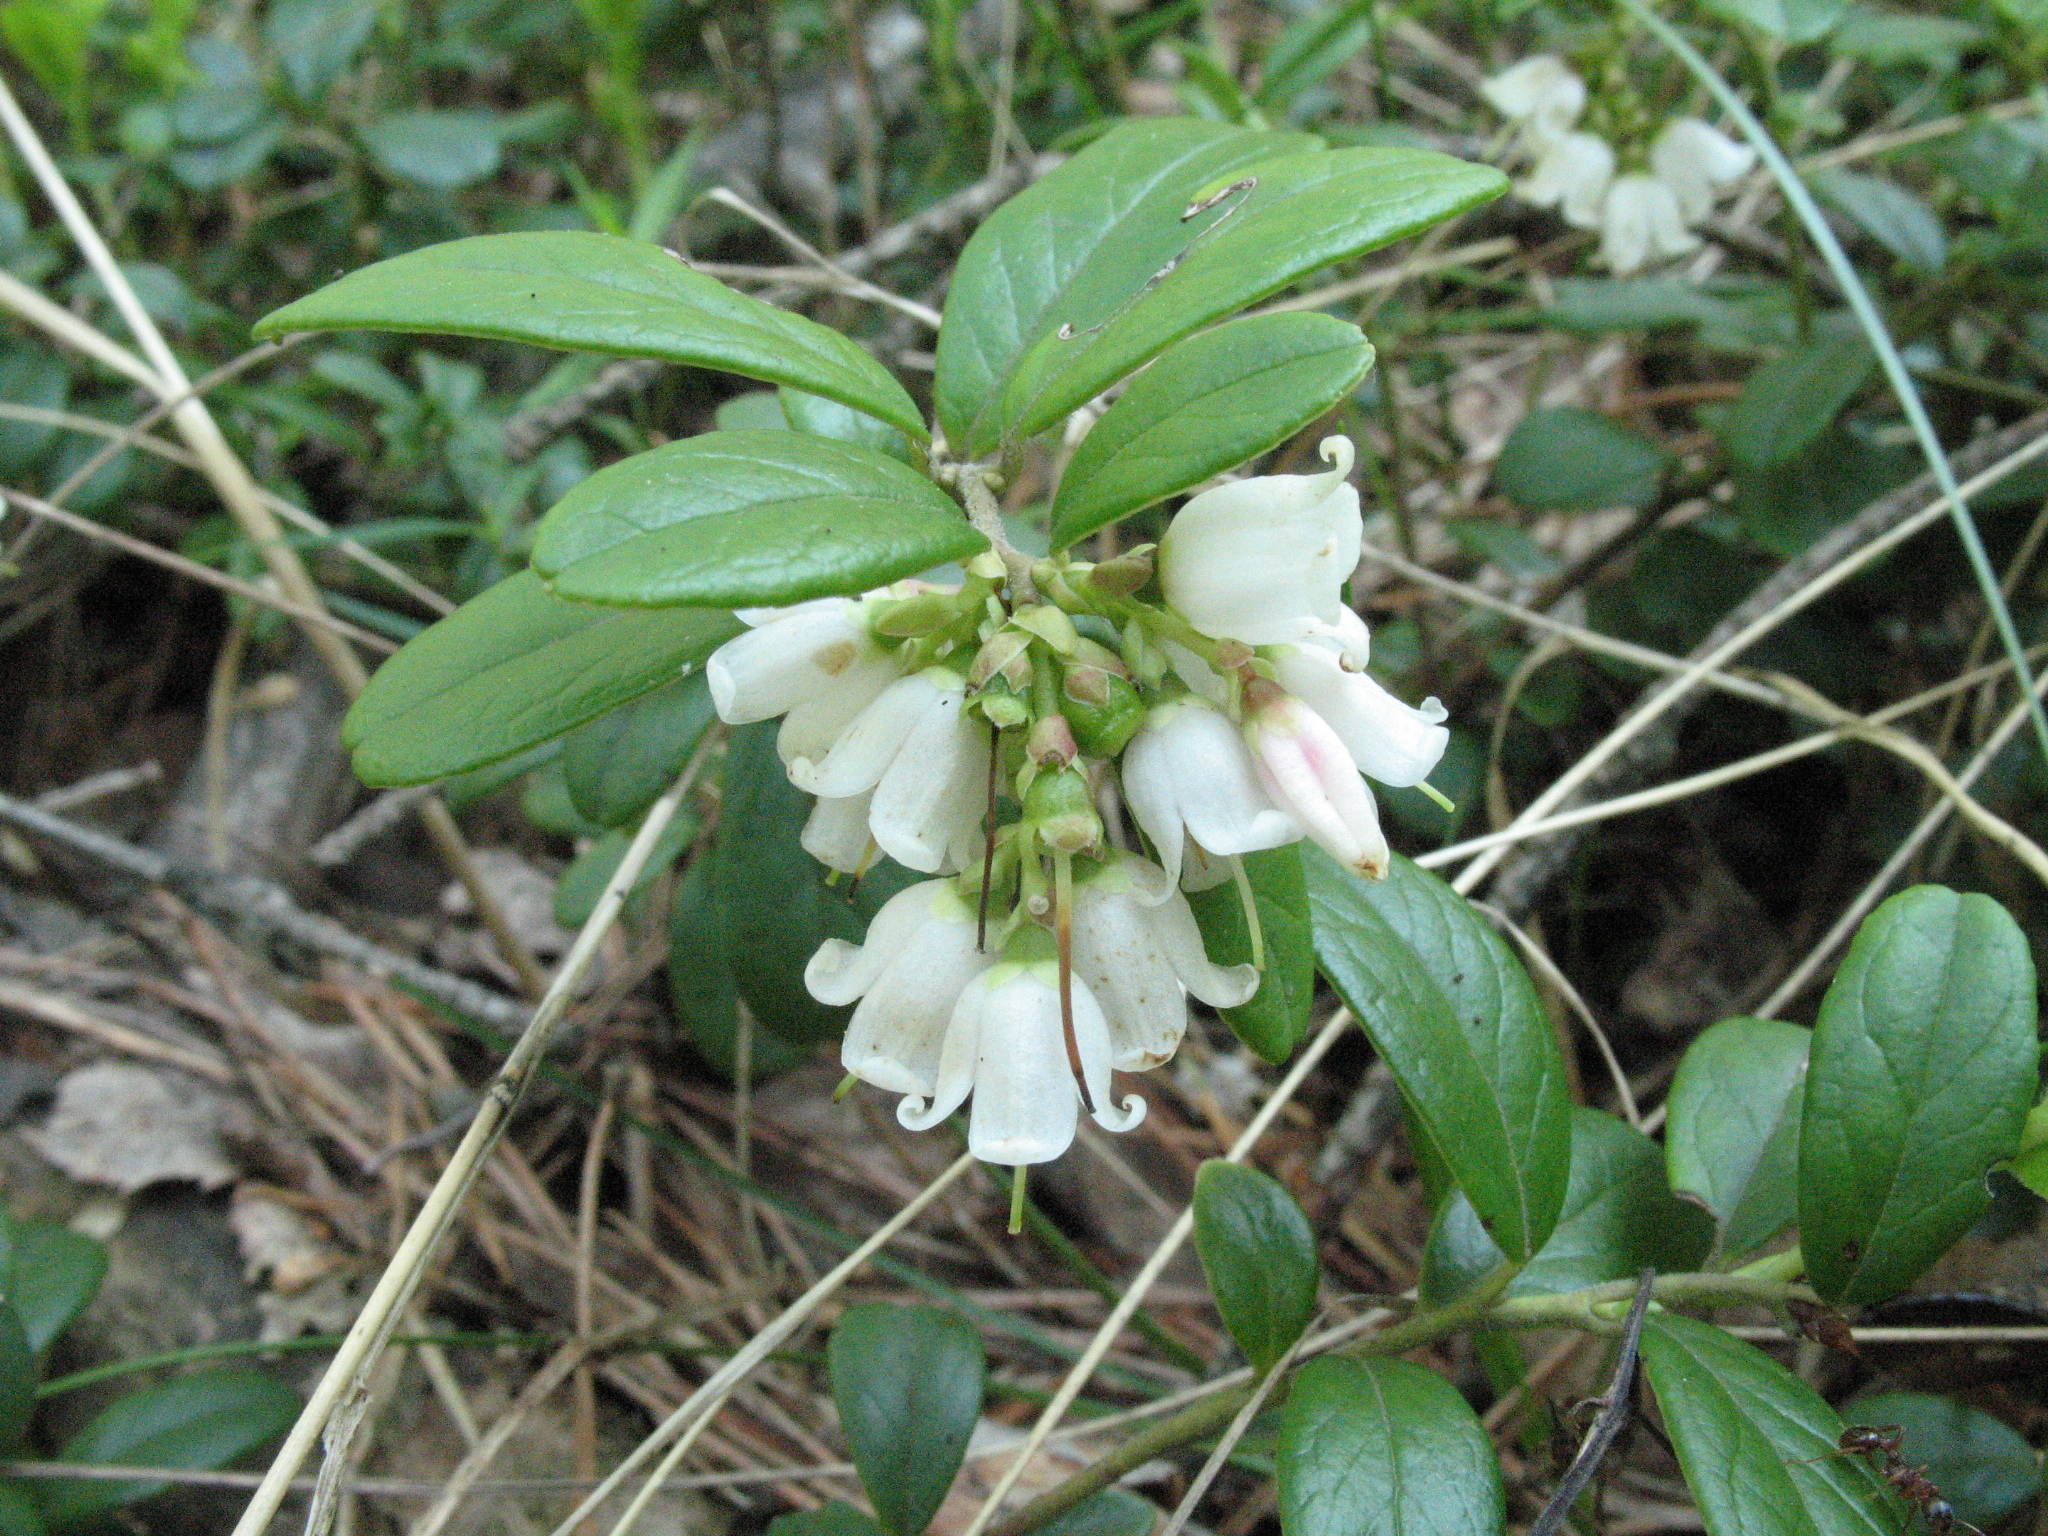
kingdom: Plantae
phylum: Tracheophyta
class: Magnoliopsida
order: Ericales
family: Ericaceae
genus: Vaccinium
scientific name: Vaccinium vitis-idaea
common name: Cowberry
